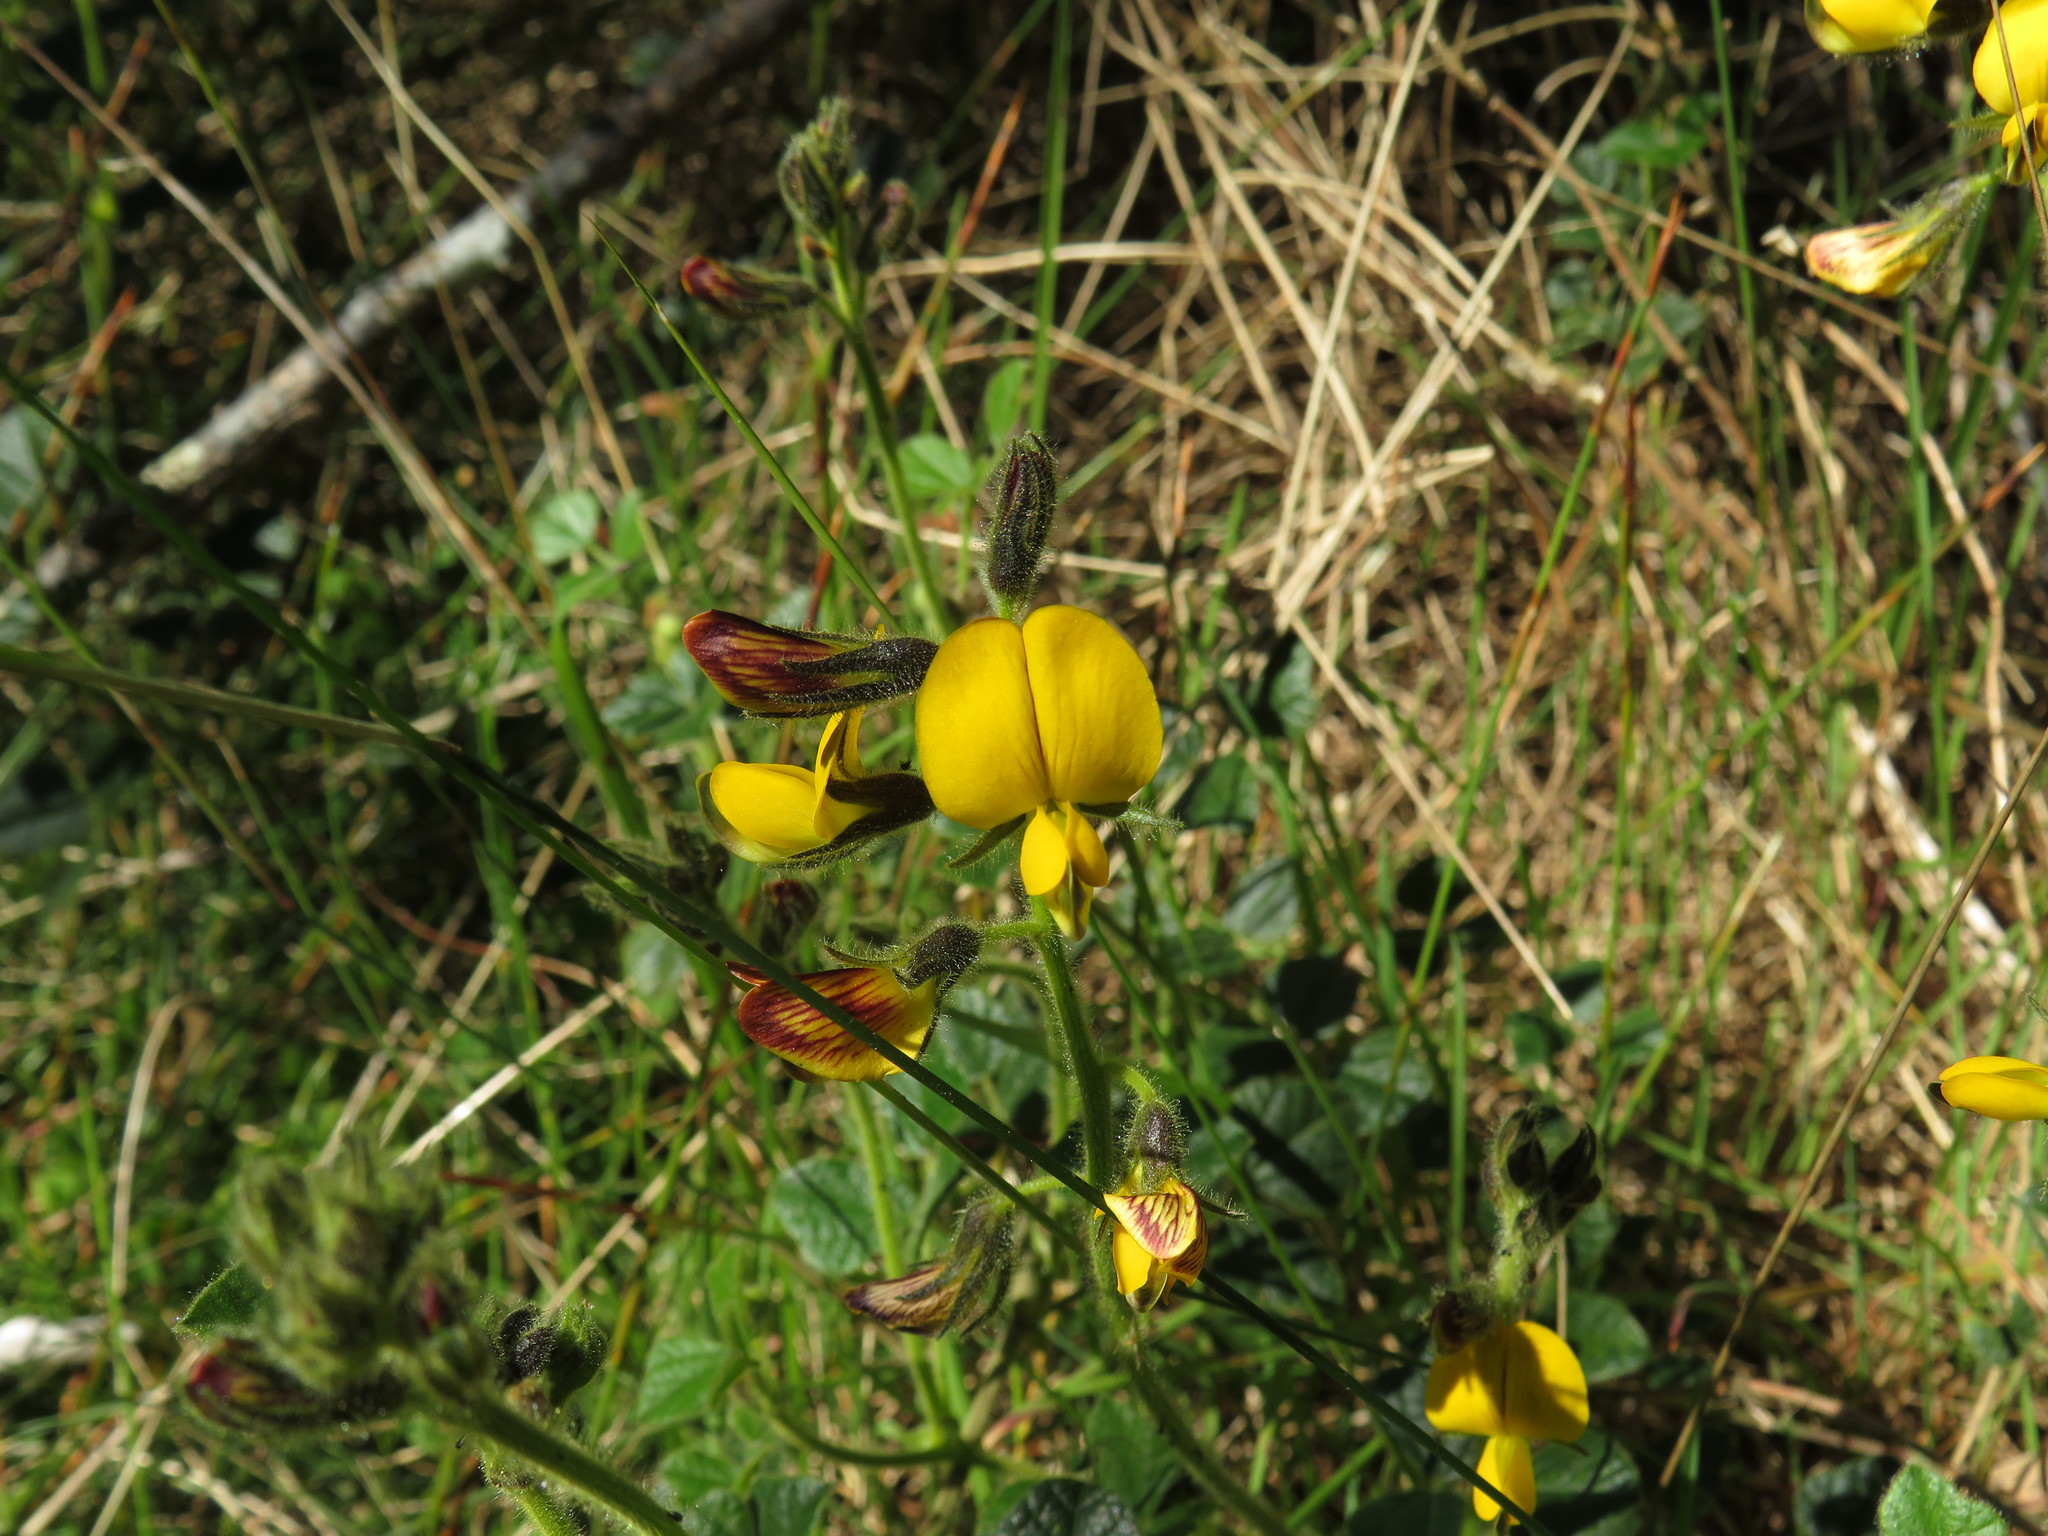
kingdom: Plantae
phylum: Tracheophyta
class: Magnoliopsida
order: Fabales
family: Fabaceae
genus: Bolusafra
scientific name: Bolusafra bituminosa
